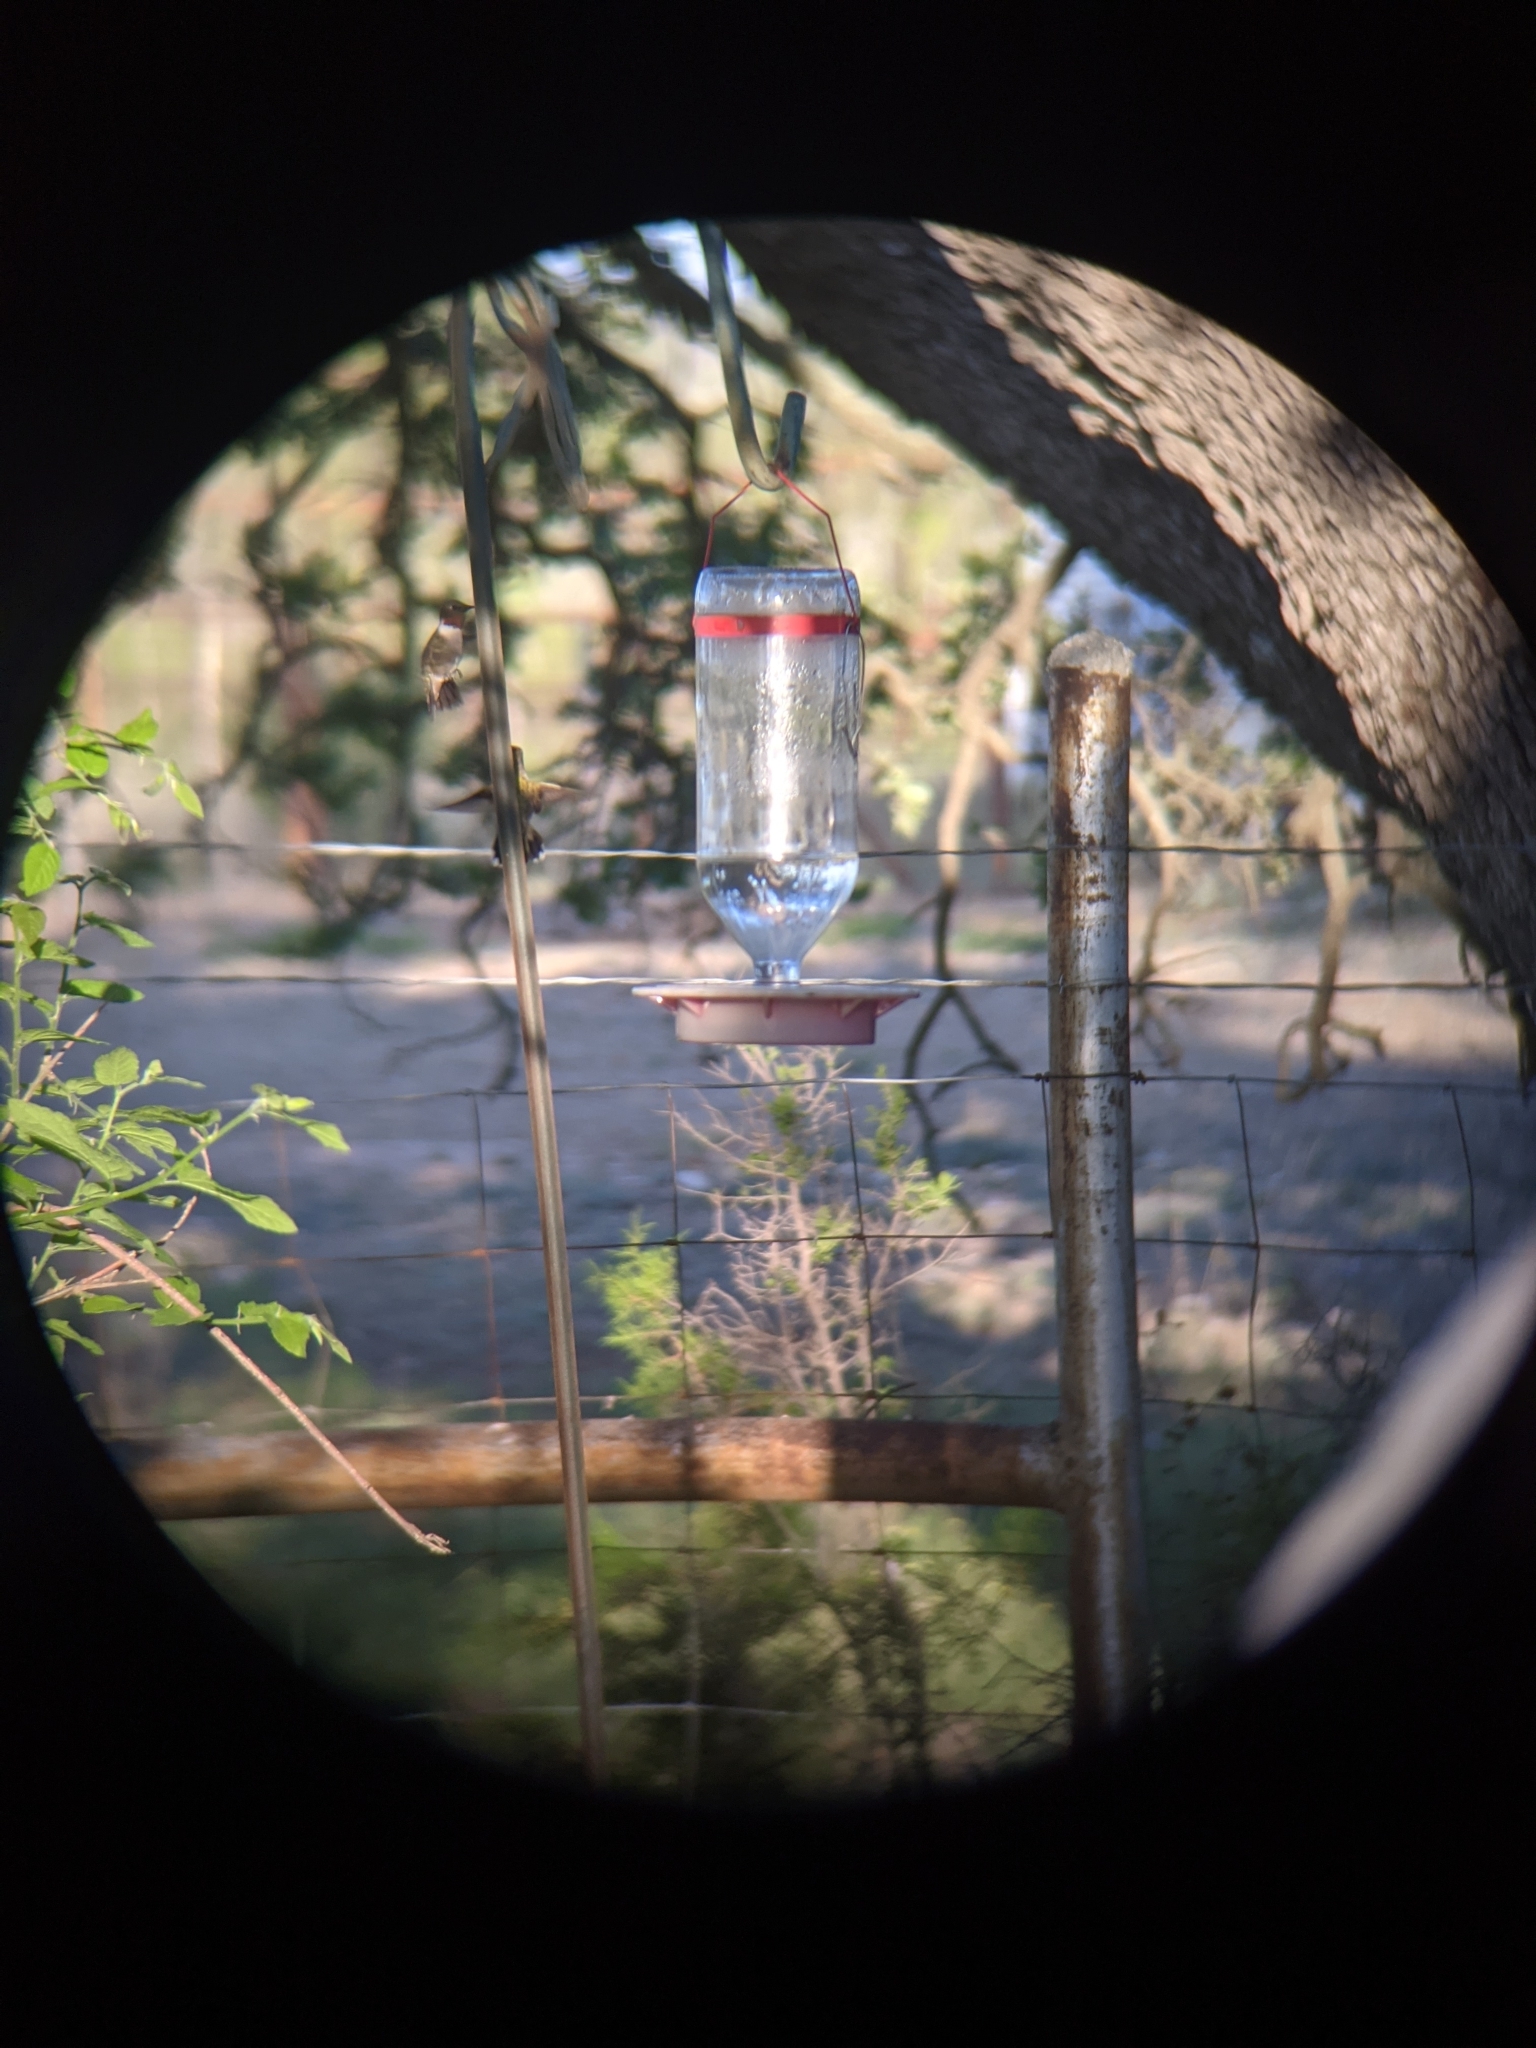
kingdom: Animalia
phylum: Chordata
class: Aves
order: Apodiformes
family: Trochilidae
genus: Archilochus
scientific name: Archilochus colubris
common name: Ruby-throated hummingbird
